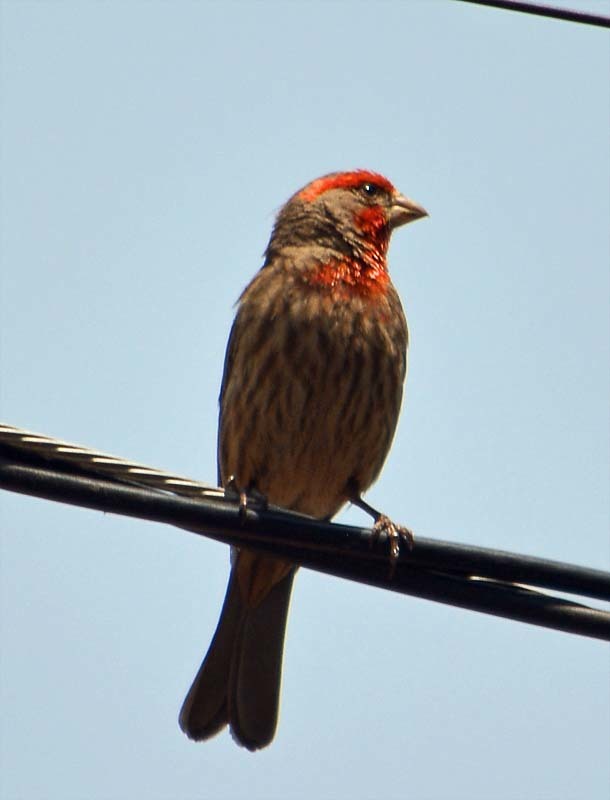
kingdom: Animalia
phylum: Chordata
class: Aves
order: Passeriformes
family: Fringillidae
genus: Haemorhous
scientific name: Haemorhous mexicanus
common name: House finch
